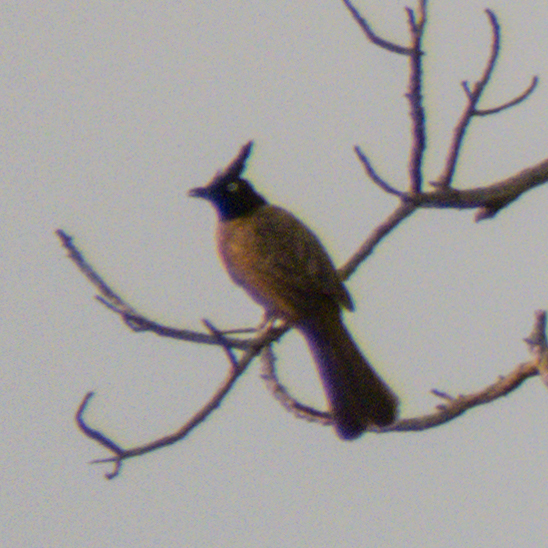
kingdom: Animalia
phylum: Chordata
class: Aves
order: Passeriformes
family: Pycnonotidae
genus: Pycnonotus
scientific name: Pycnonotus flaviventris
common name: Black-crested bulbul
